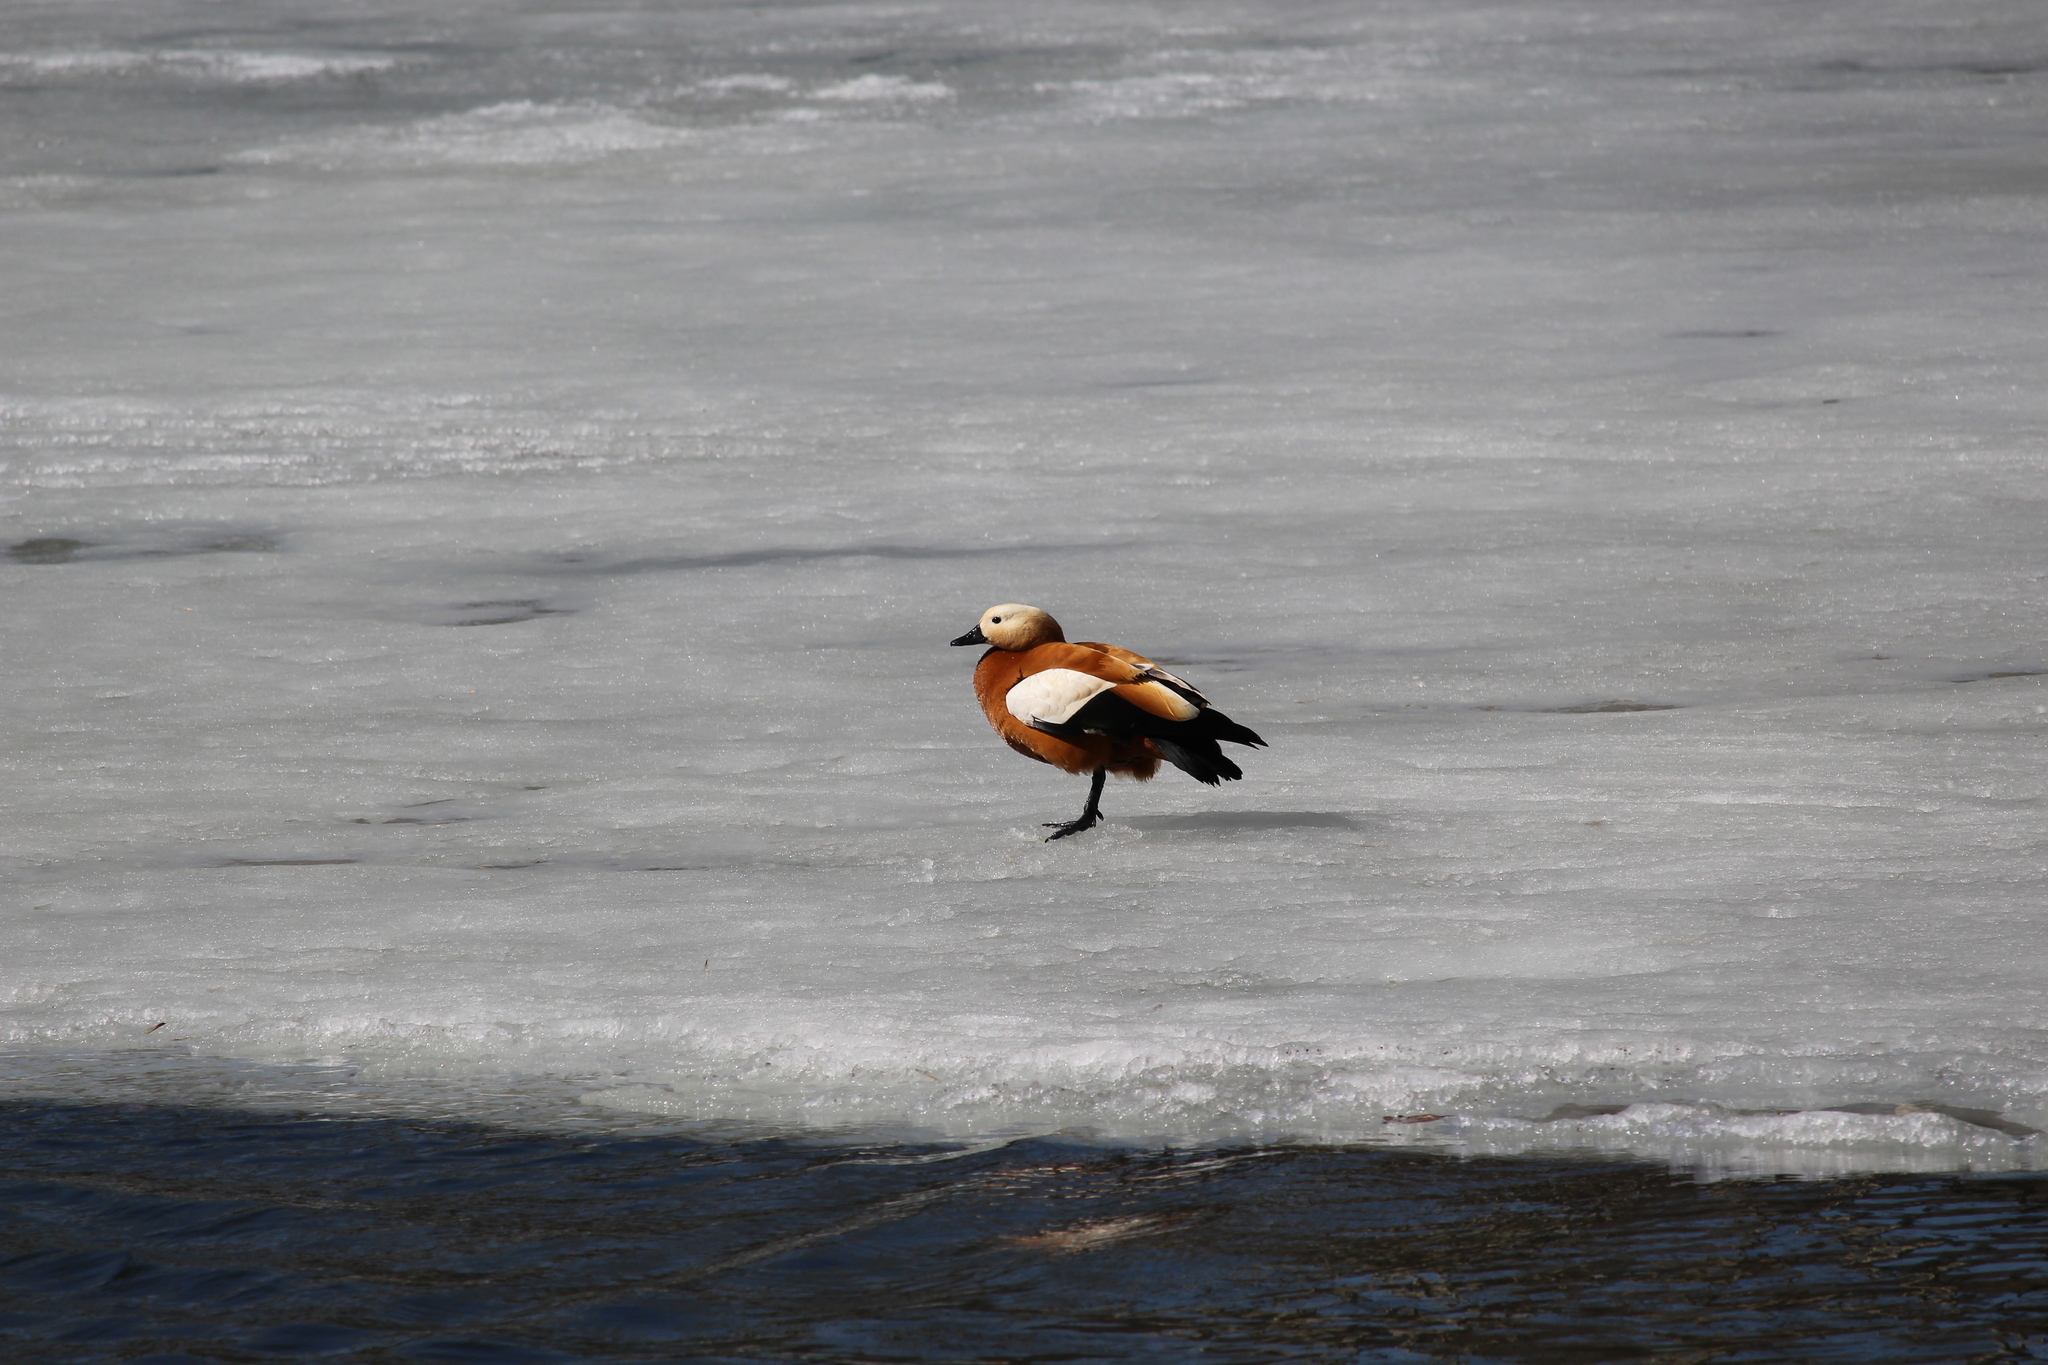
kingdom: Animalia
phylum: Chordata
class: Aves
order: Anseriformes
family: Anatidae
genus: Tadorna
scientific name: Tadorna ferruginea
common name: Ruddy shelduck
